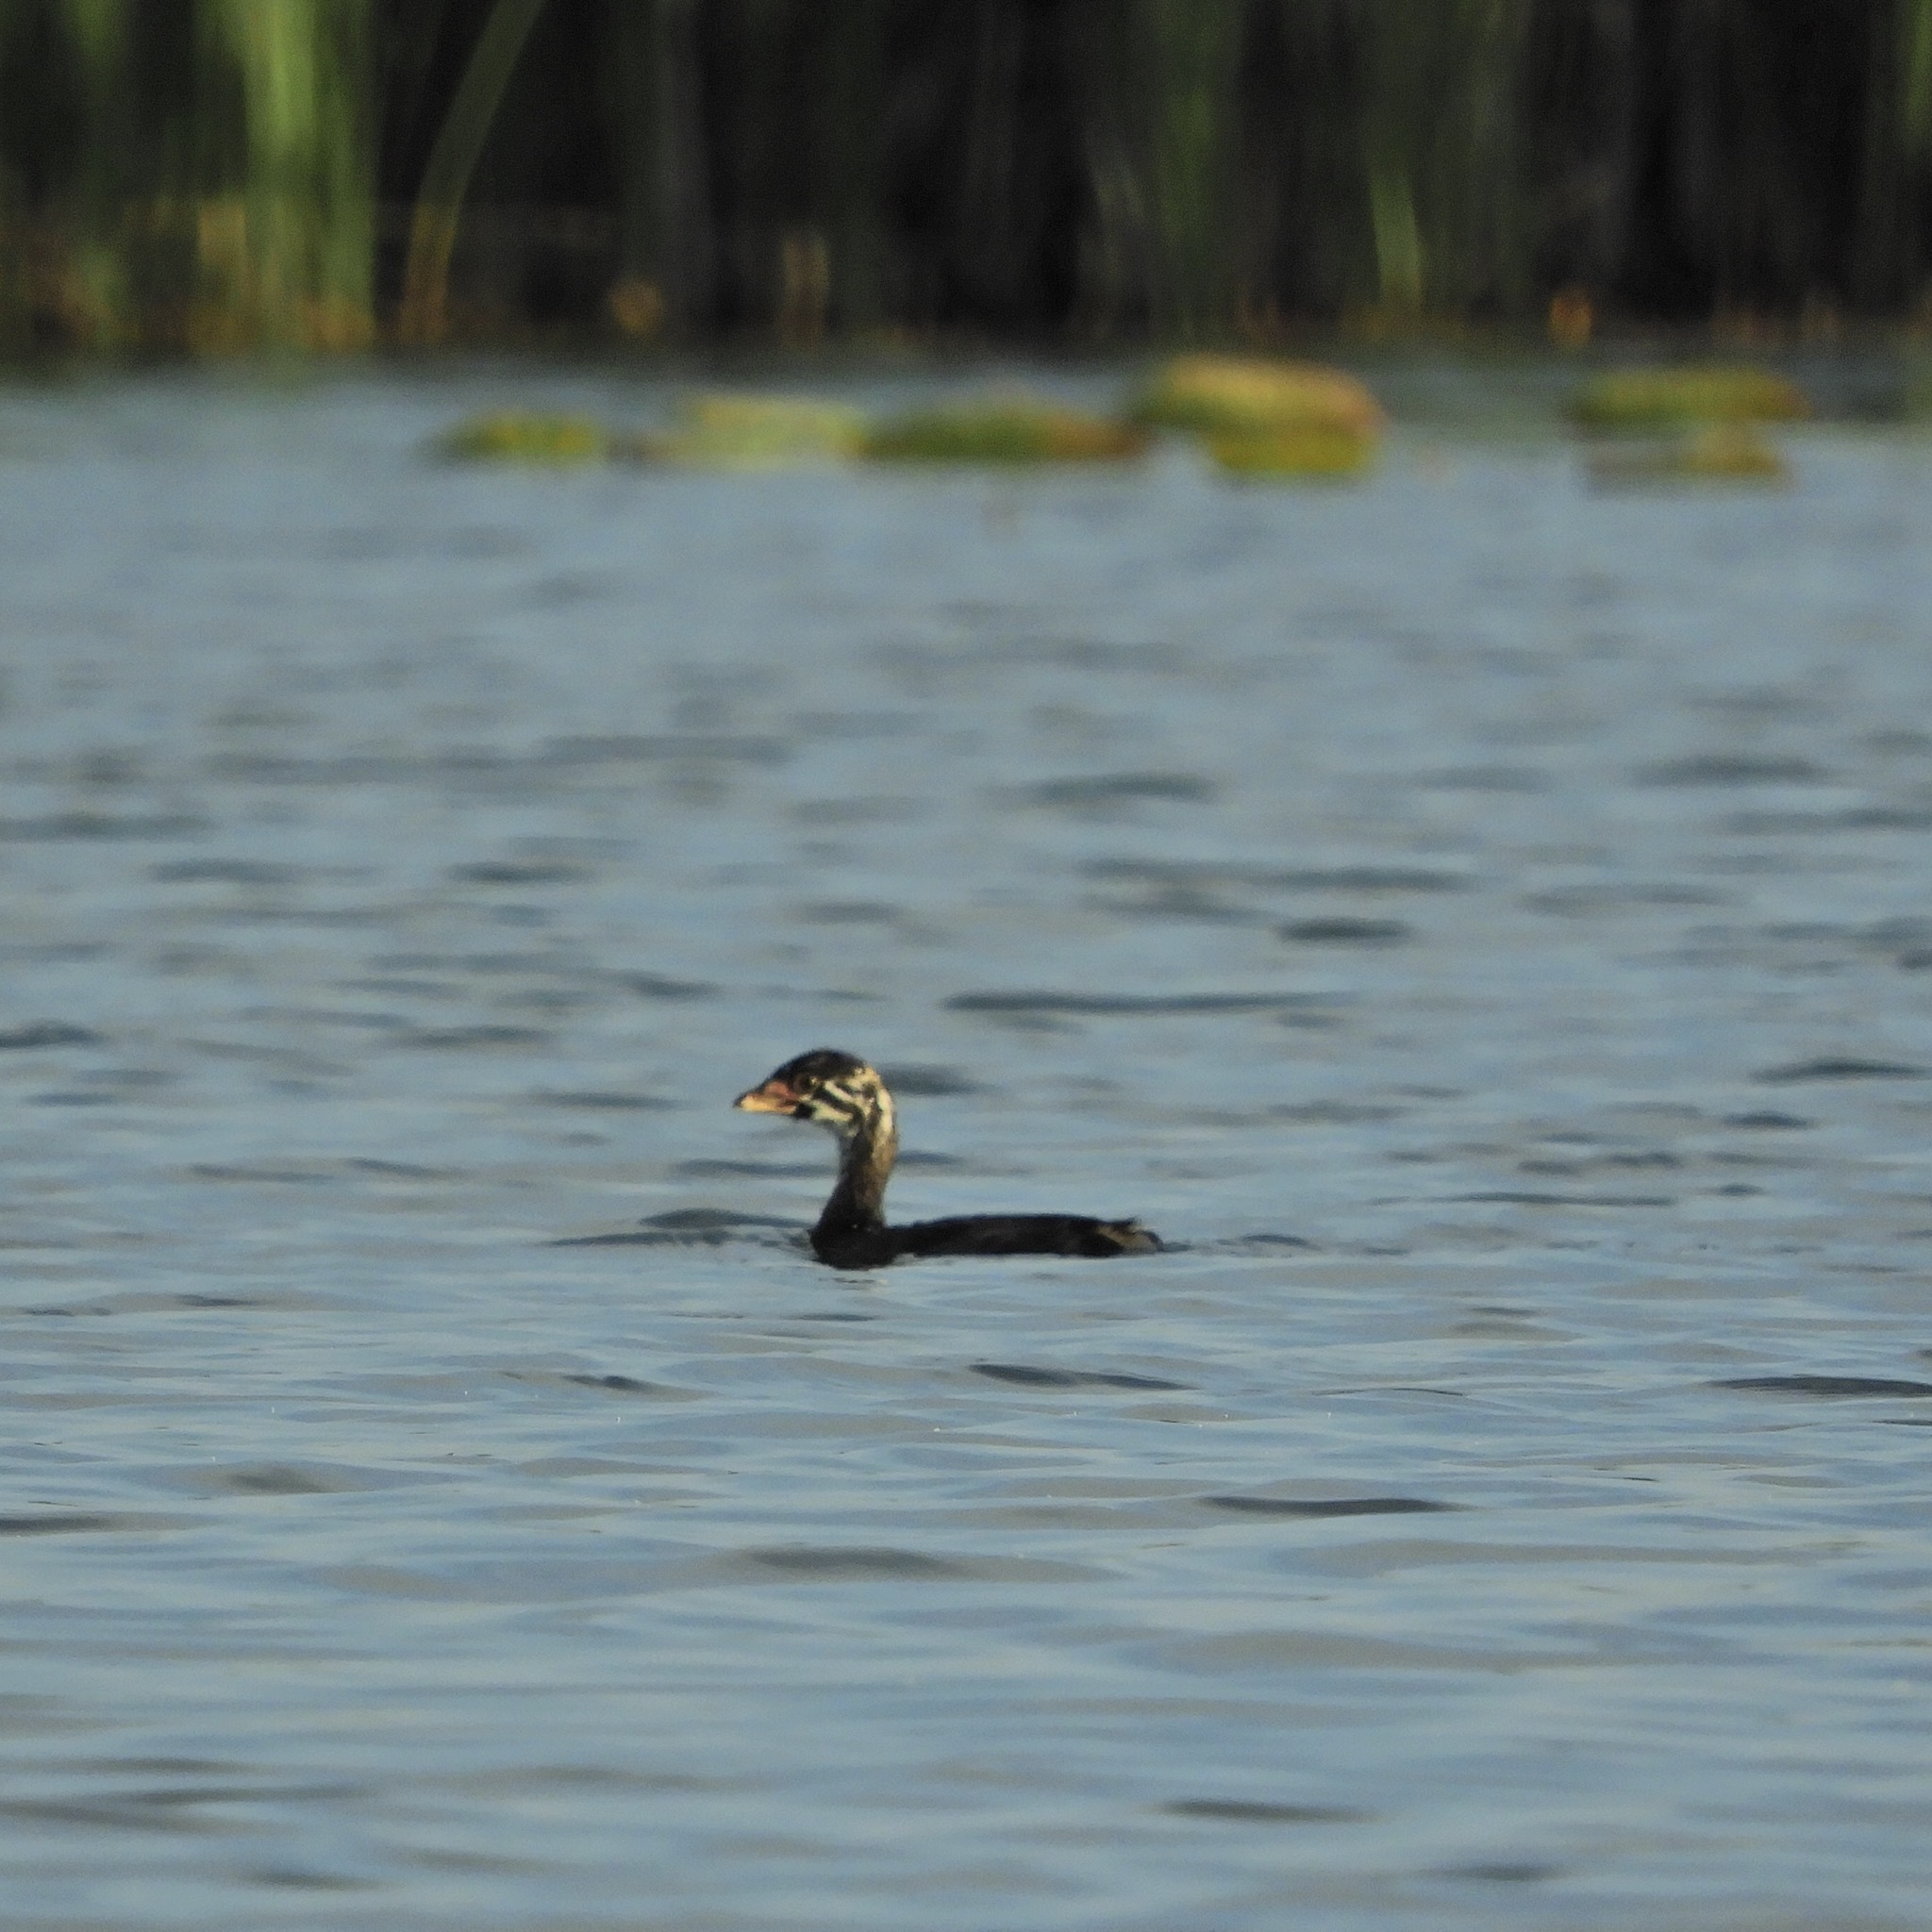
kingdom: Animalia
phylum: Chordata
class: Aves
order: Podicipediformes
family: Podicipedidae
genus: Podilymbus
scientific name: Podilymbus podiceps
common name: Pied-billed grebe
